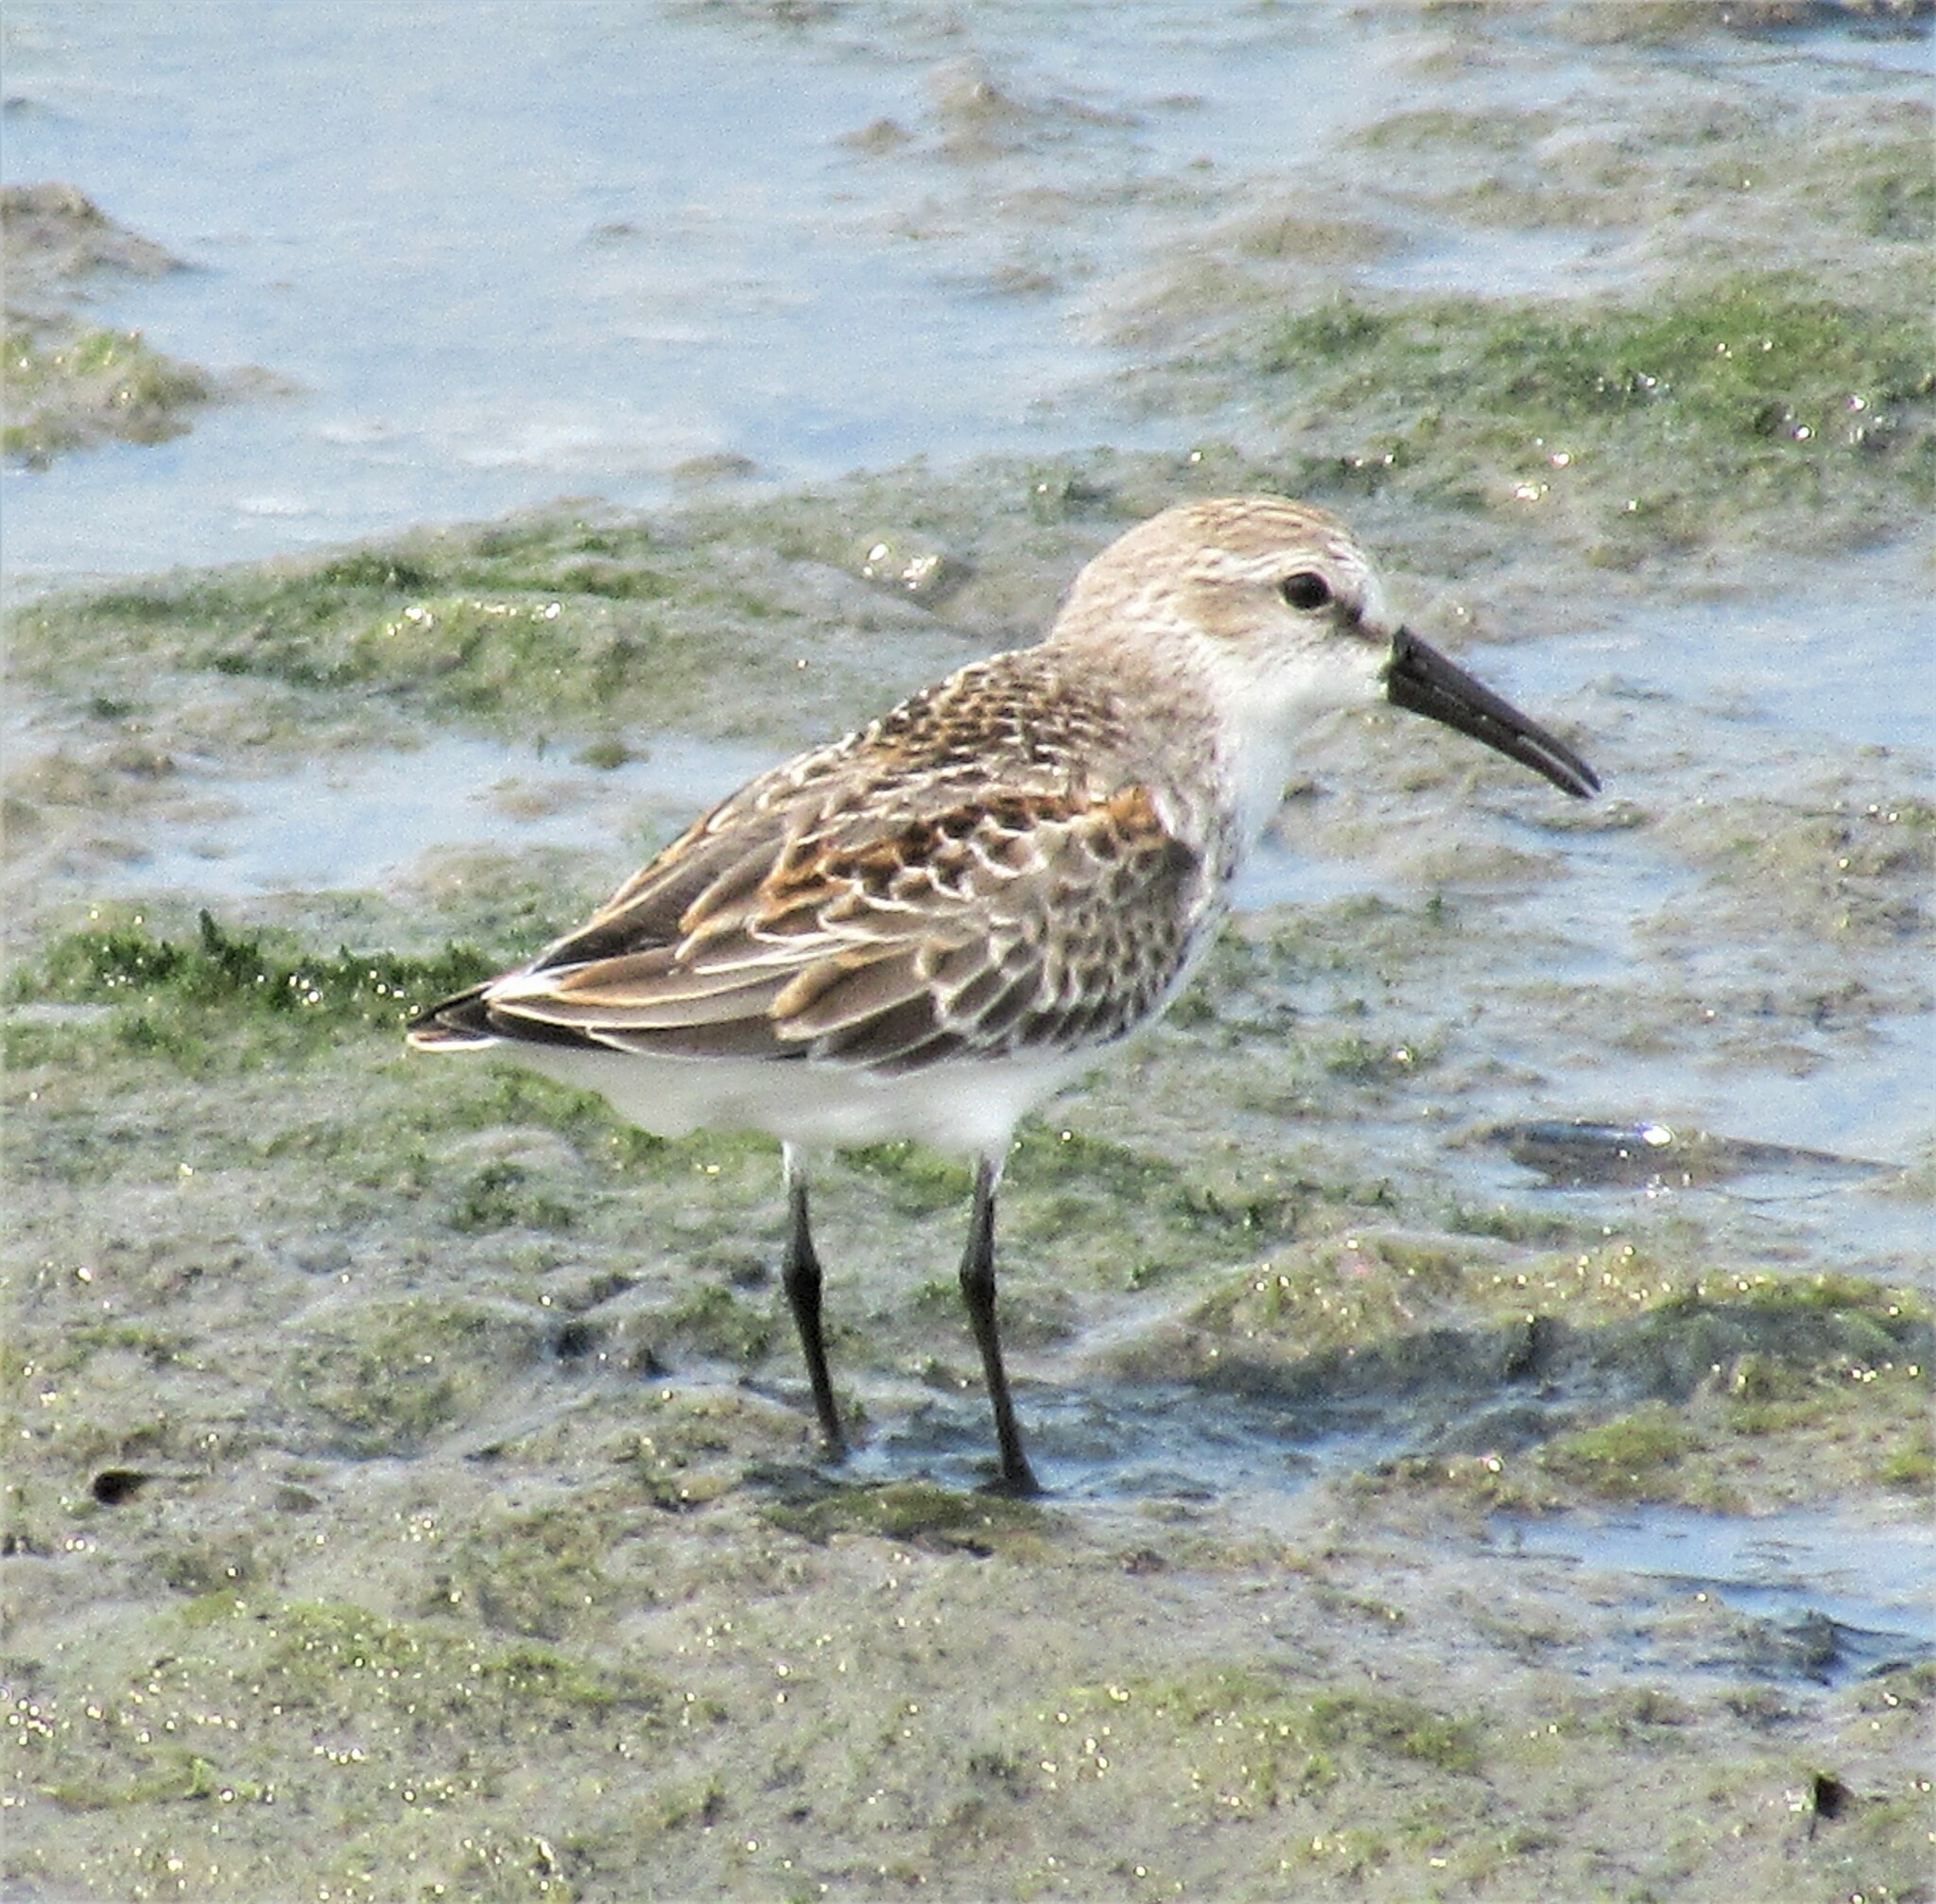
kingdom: Animalia
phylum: Chordata
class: Aves
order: Charadriiformes
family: Scolopacidae
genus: Calidris
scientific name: Calidris mauri
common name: Western sandpiper
